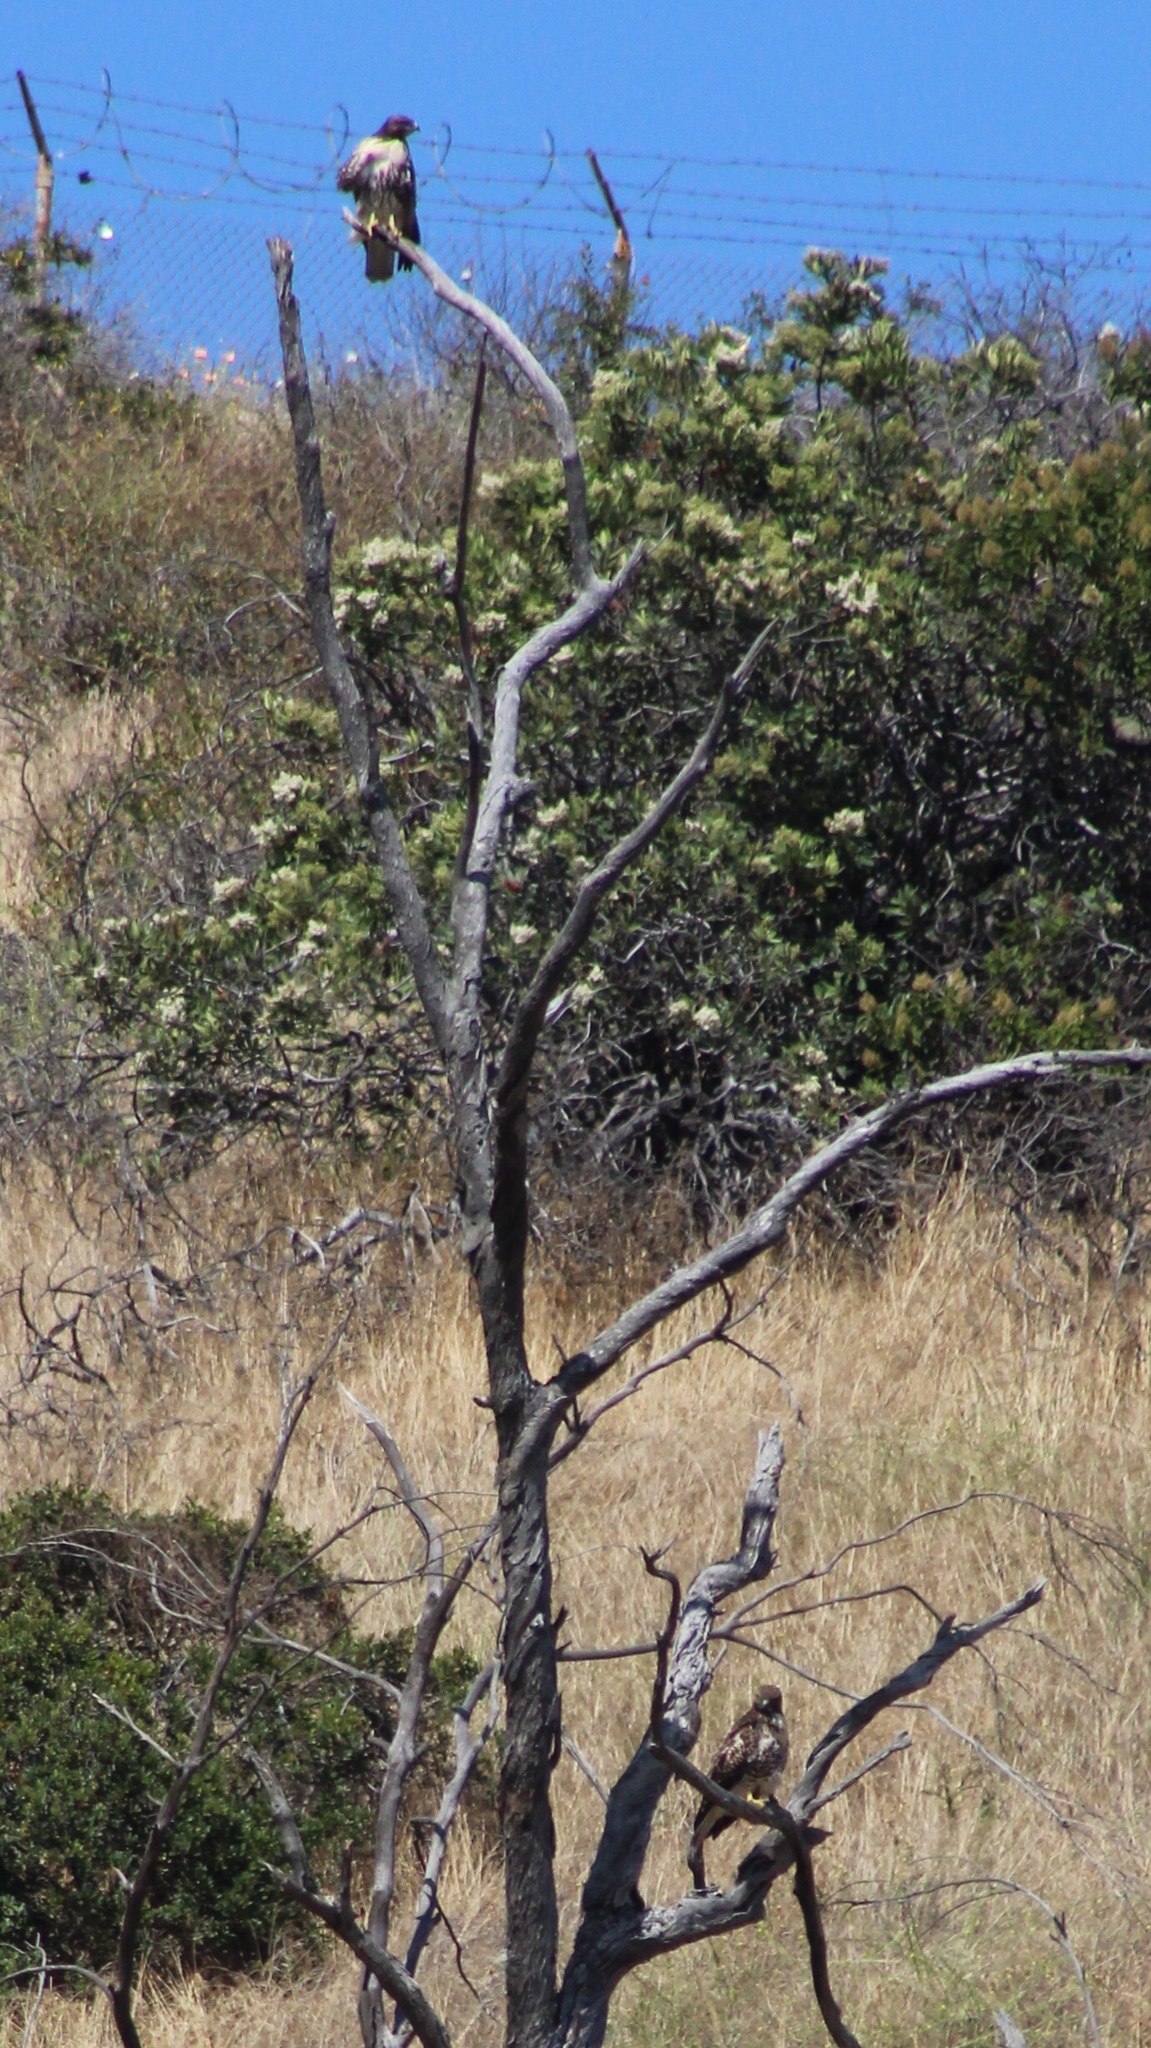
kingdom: Animalia
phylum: Chordata
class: Aves
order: Accipitriformes
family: Accipitridae
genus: Buteo
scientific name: Buteo jamaicensis
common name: Red-tailed hawk
